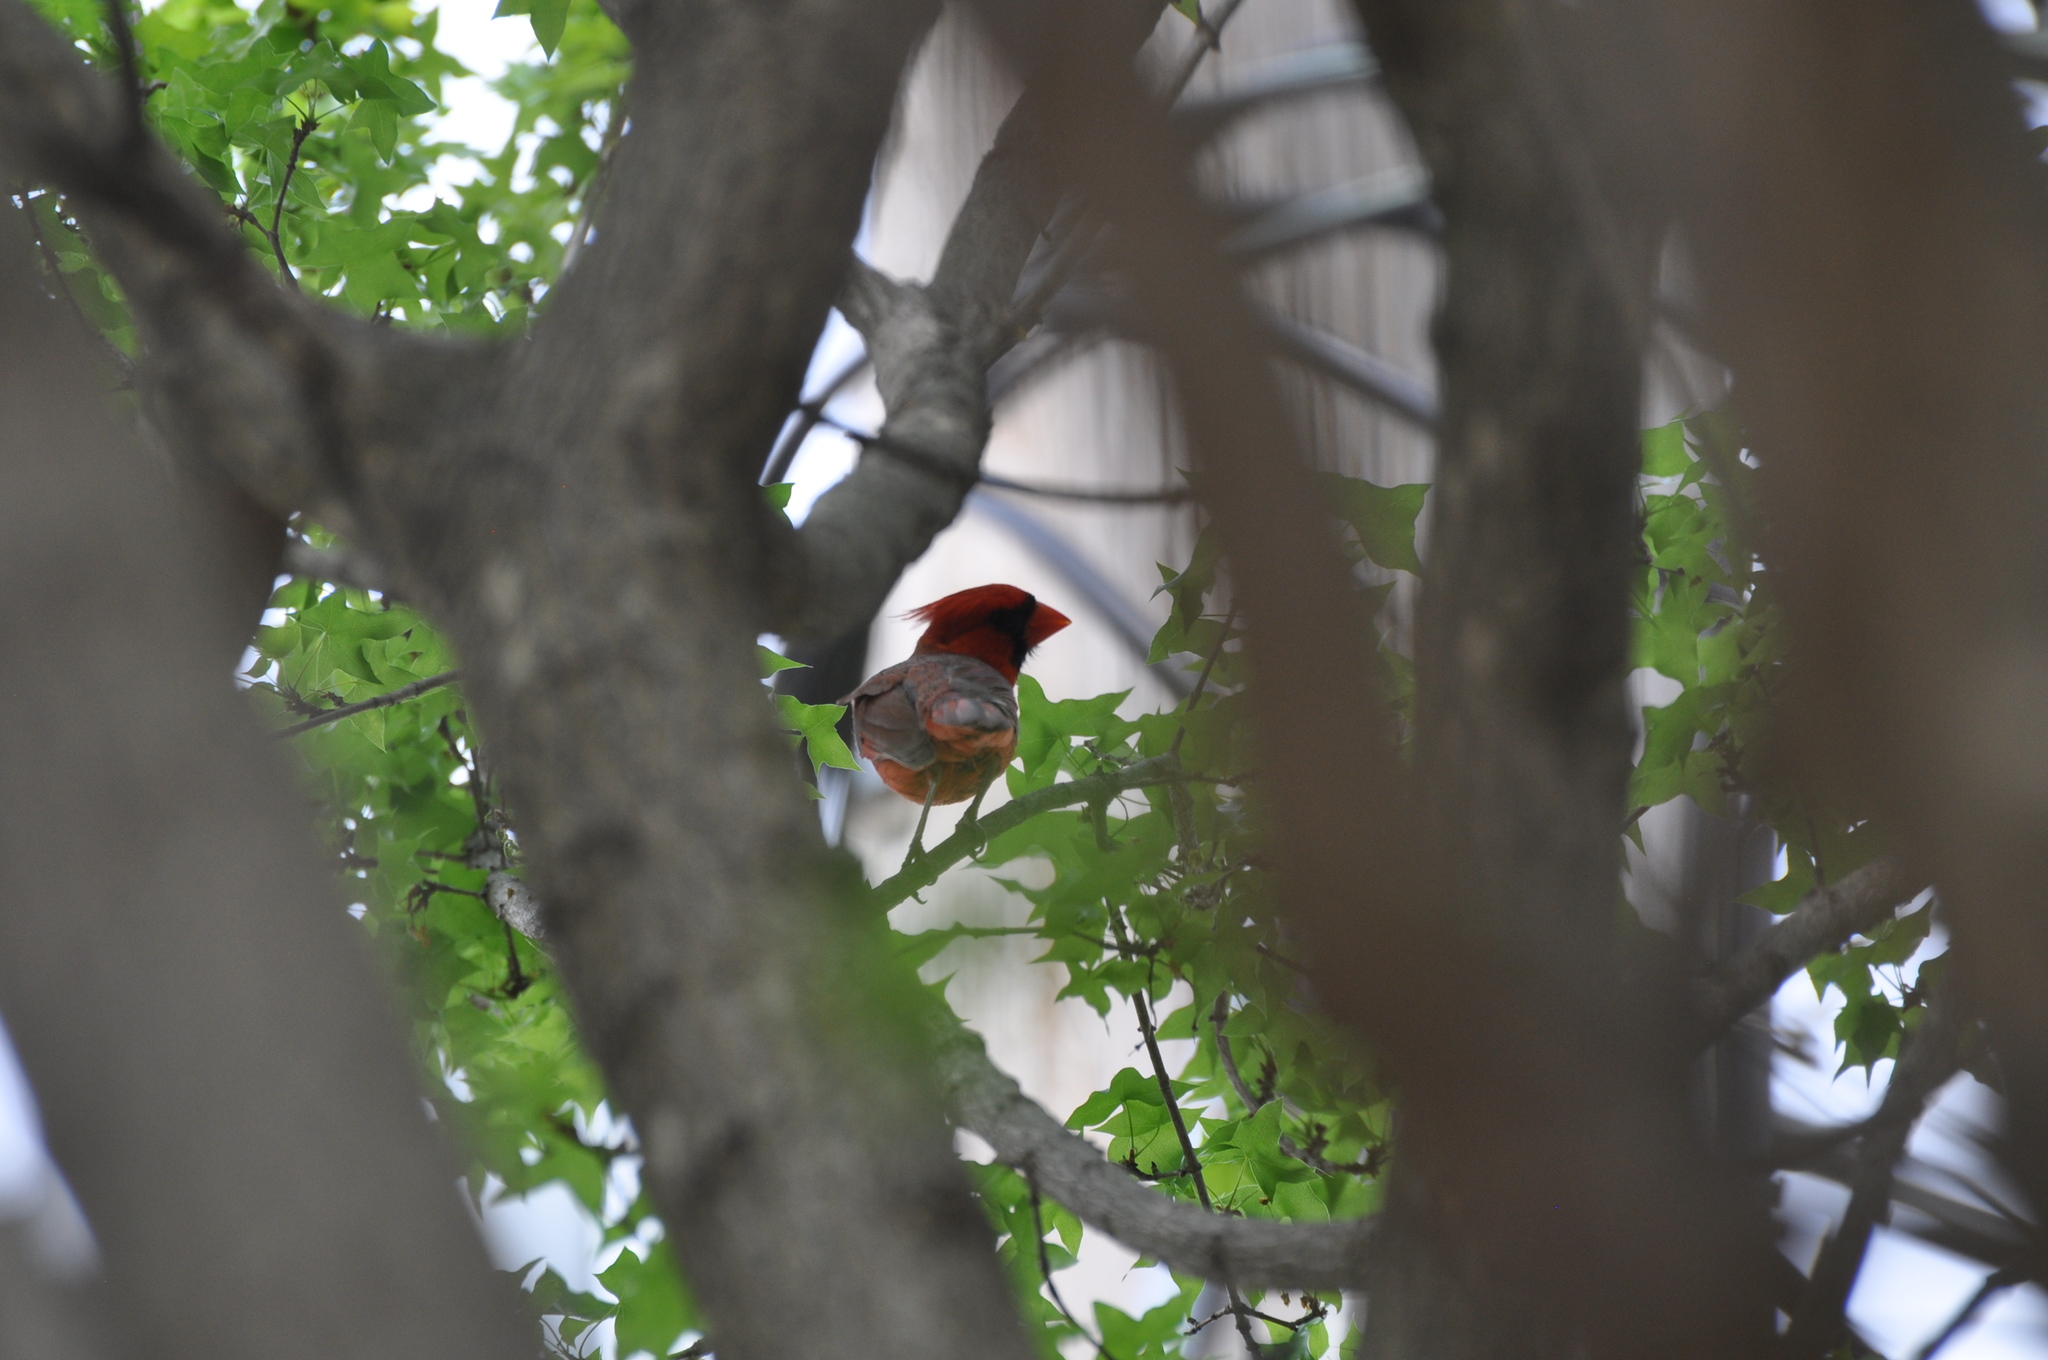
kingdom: Animalia
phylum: Chordata
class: Aves
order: Passeriformes
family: Cardinalidae
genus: Cardinalis
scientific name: Cardinalis cardinalis
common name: Northern cardinal
